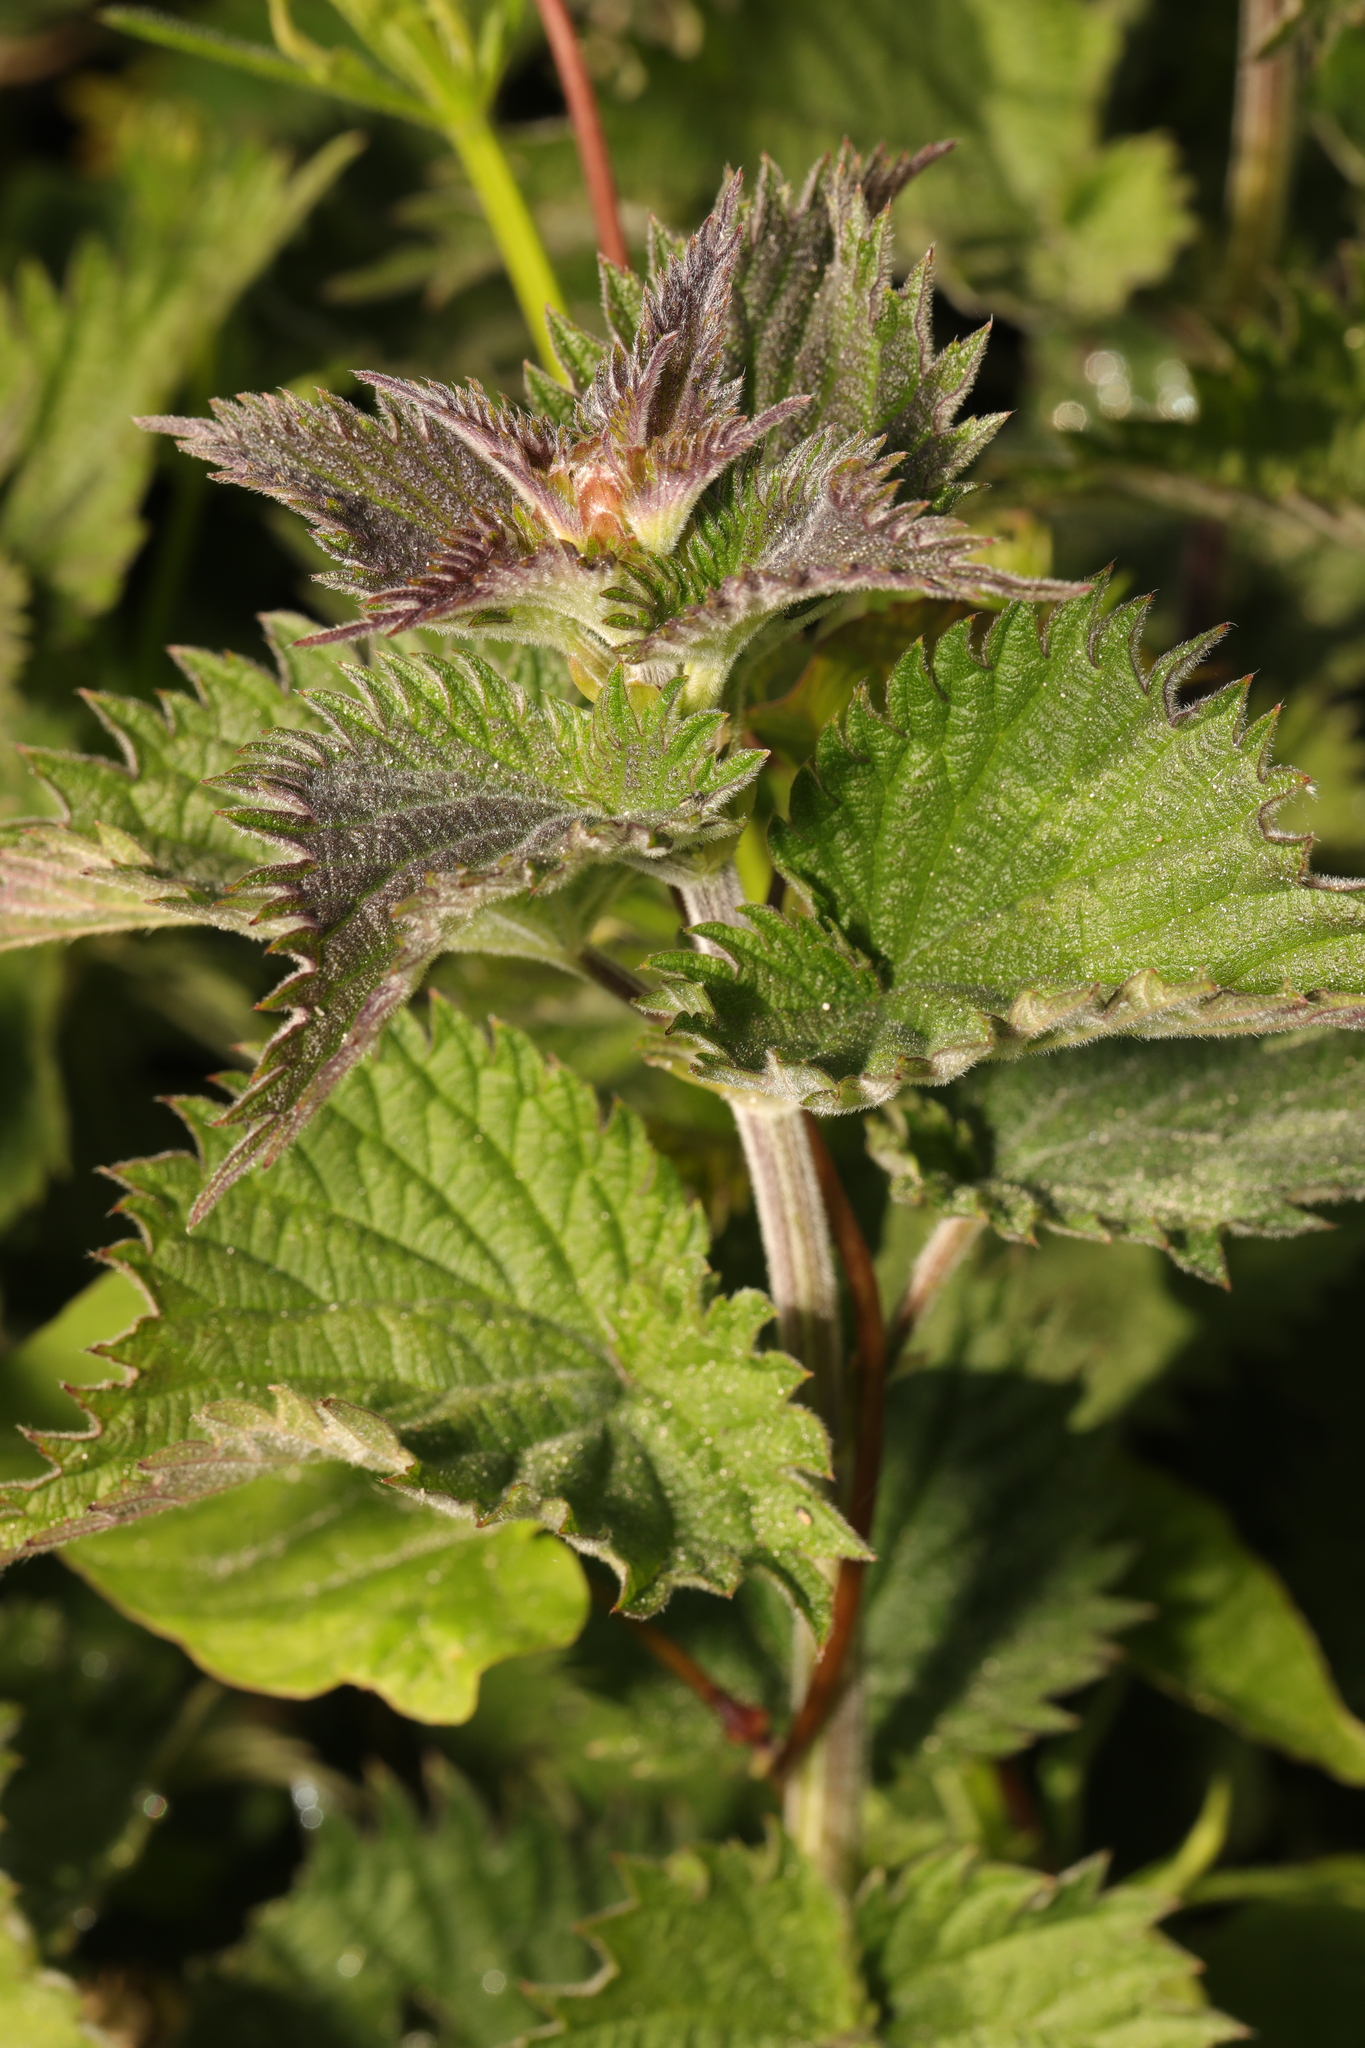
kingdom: Plantae
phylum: Tracheophyta
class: Magnoliopsida
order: Rosales
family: Urticaceae
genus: Urtica
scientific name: Urtica dioica
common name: Common nettle
